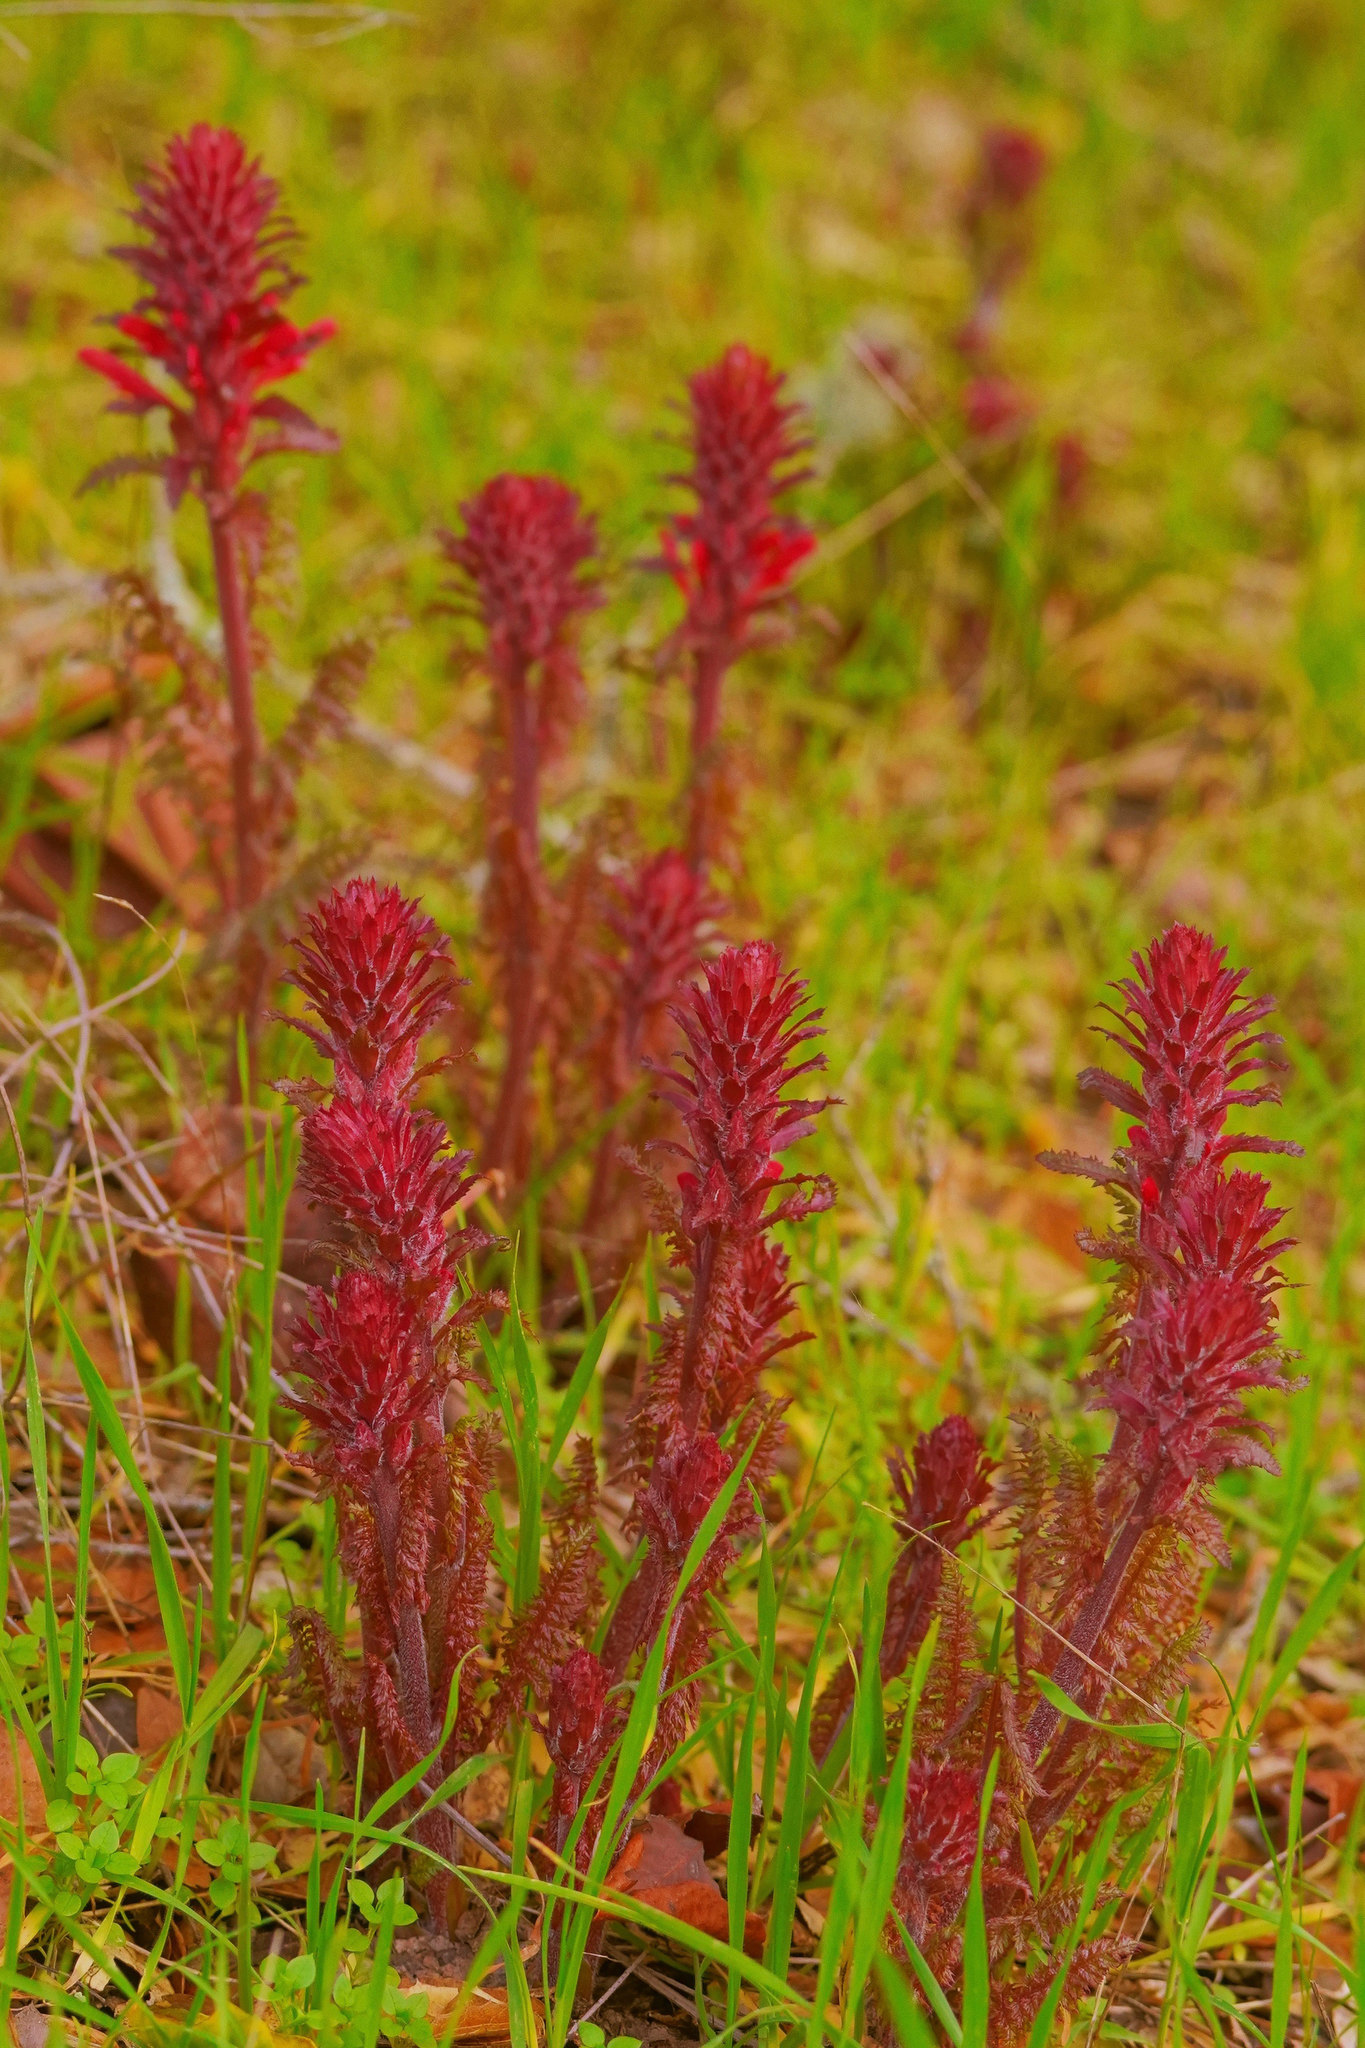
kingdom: Plantae
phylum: Tracheophyta
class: Magnoliopsida
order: Lamiales
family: Orobanchaceae
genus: Pedicularis
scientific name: Pedicularis densiflora
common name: Indian warrior
